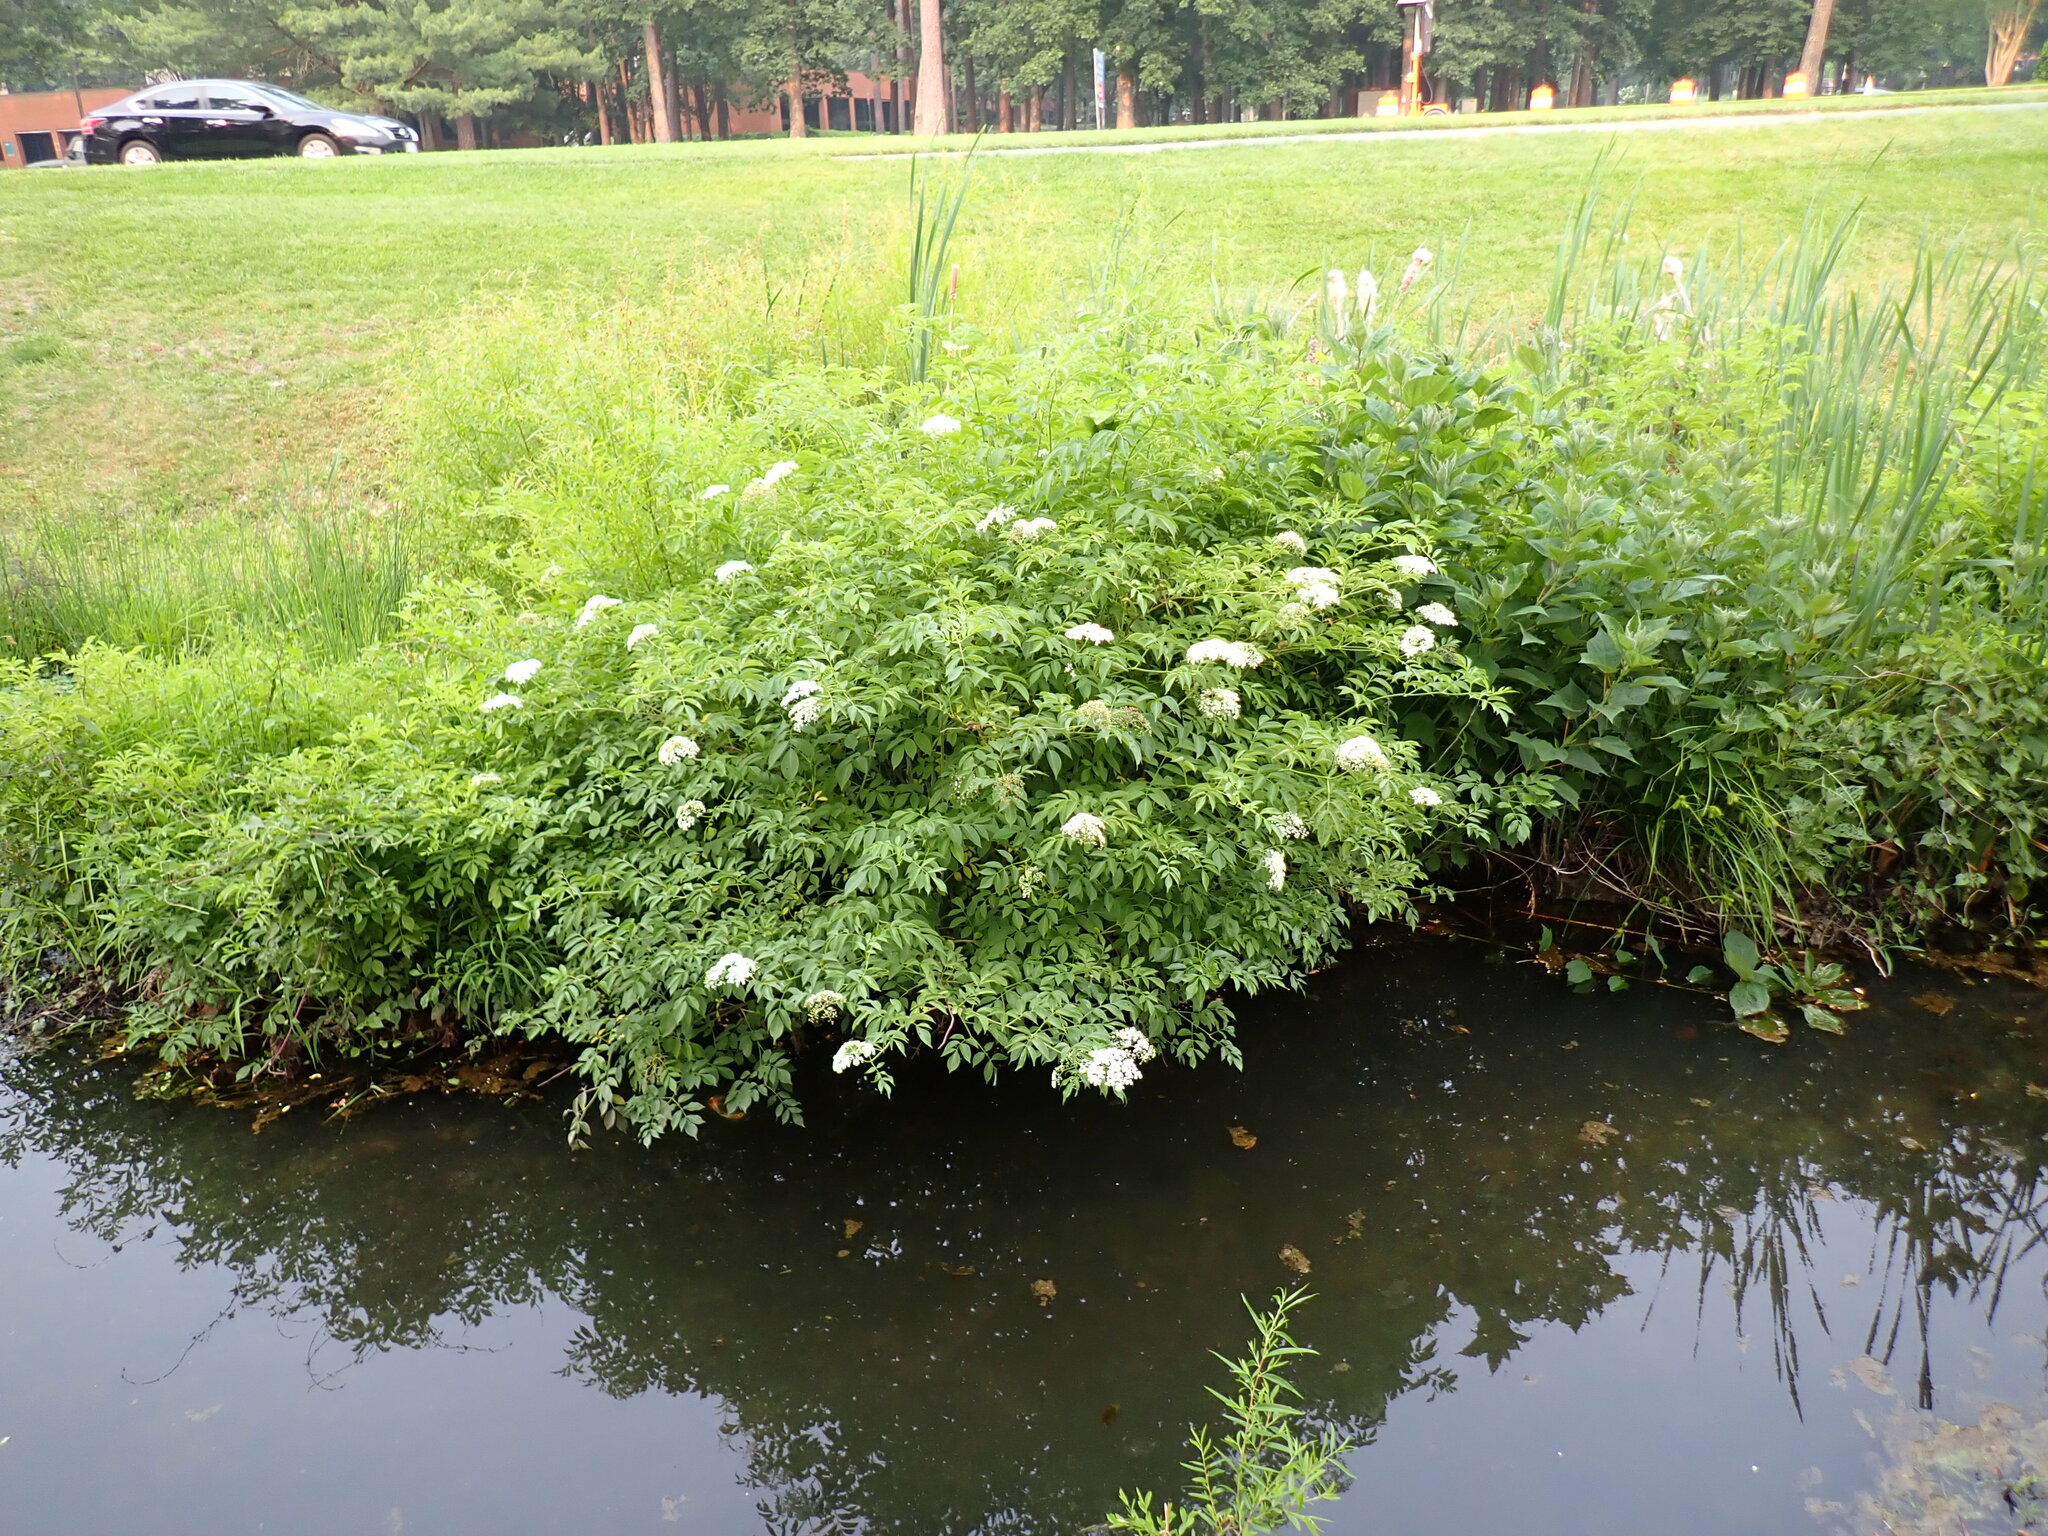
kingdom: Plantae
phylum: Tracheophyta
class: Magnoliopsida
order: Dipsacales
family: Viburnaceae
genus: Sambucus
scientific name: Sambucus canadensis
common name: American elder
